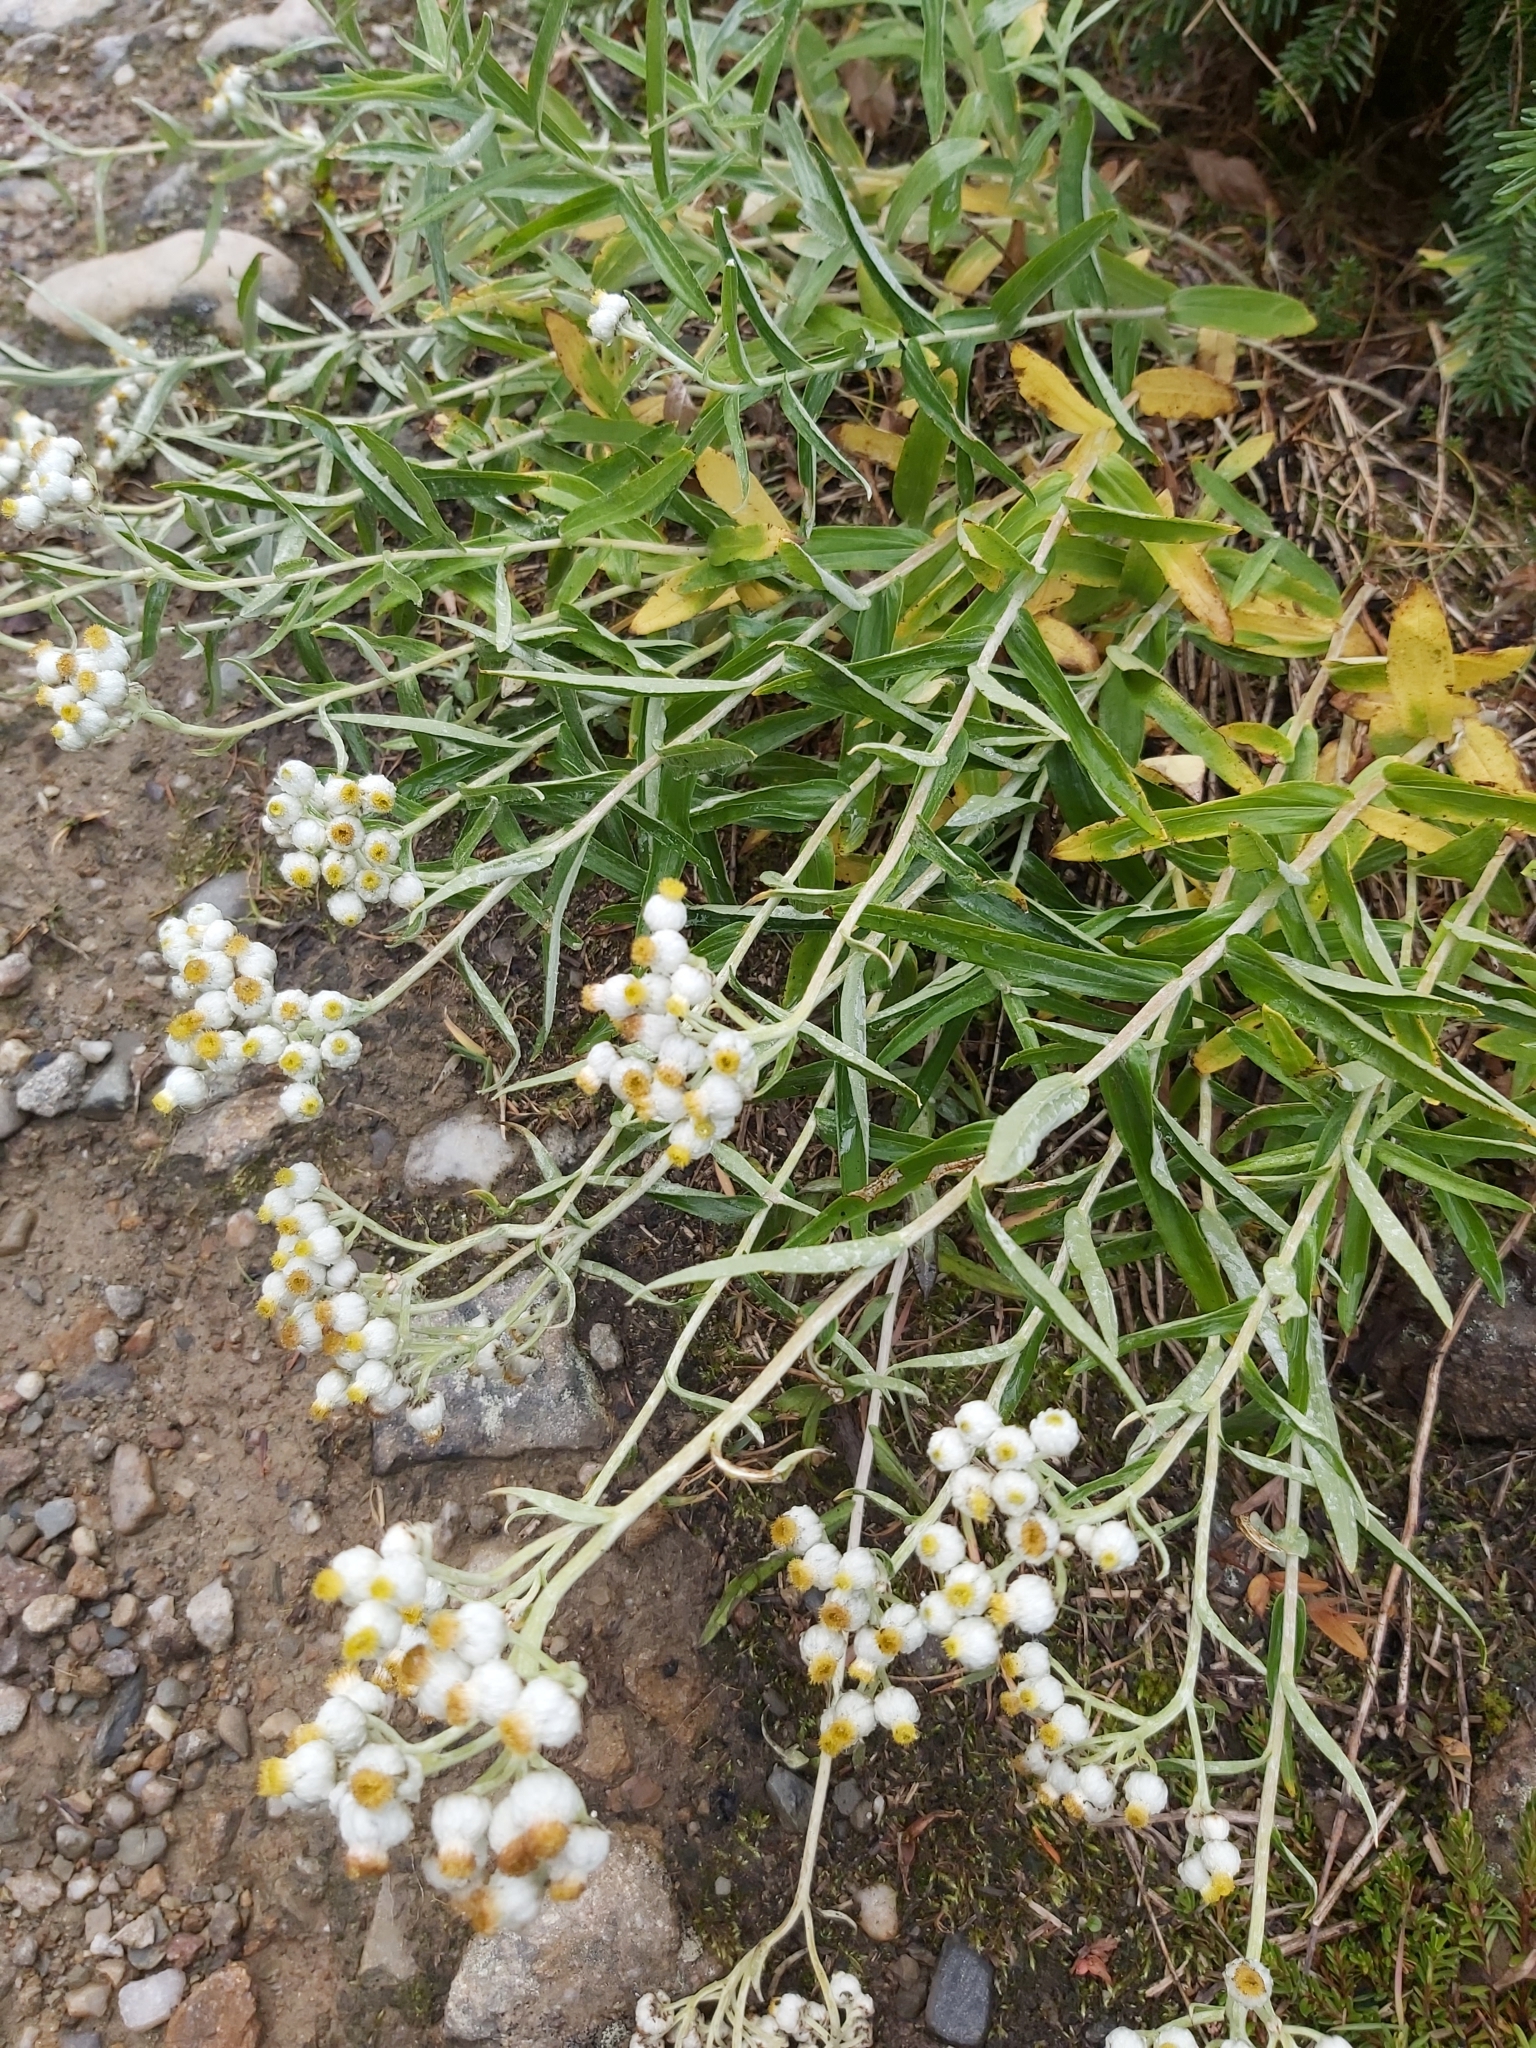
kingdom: Plantae
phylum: Tracheophyta
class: Magnoliopsida
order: Asterales
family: Asteraceae
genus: Anaphalis
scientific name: Anaphalis margaritacea
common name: Pearly everlasting
